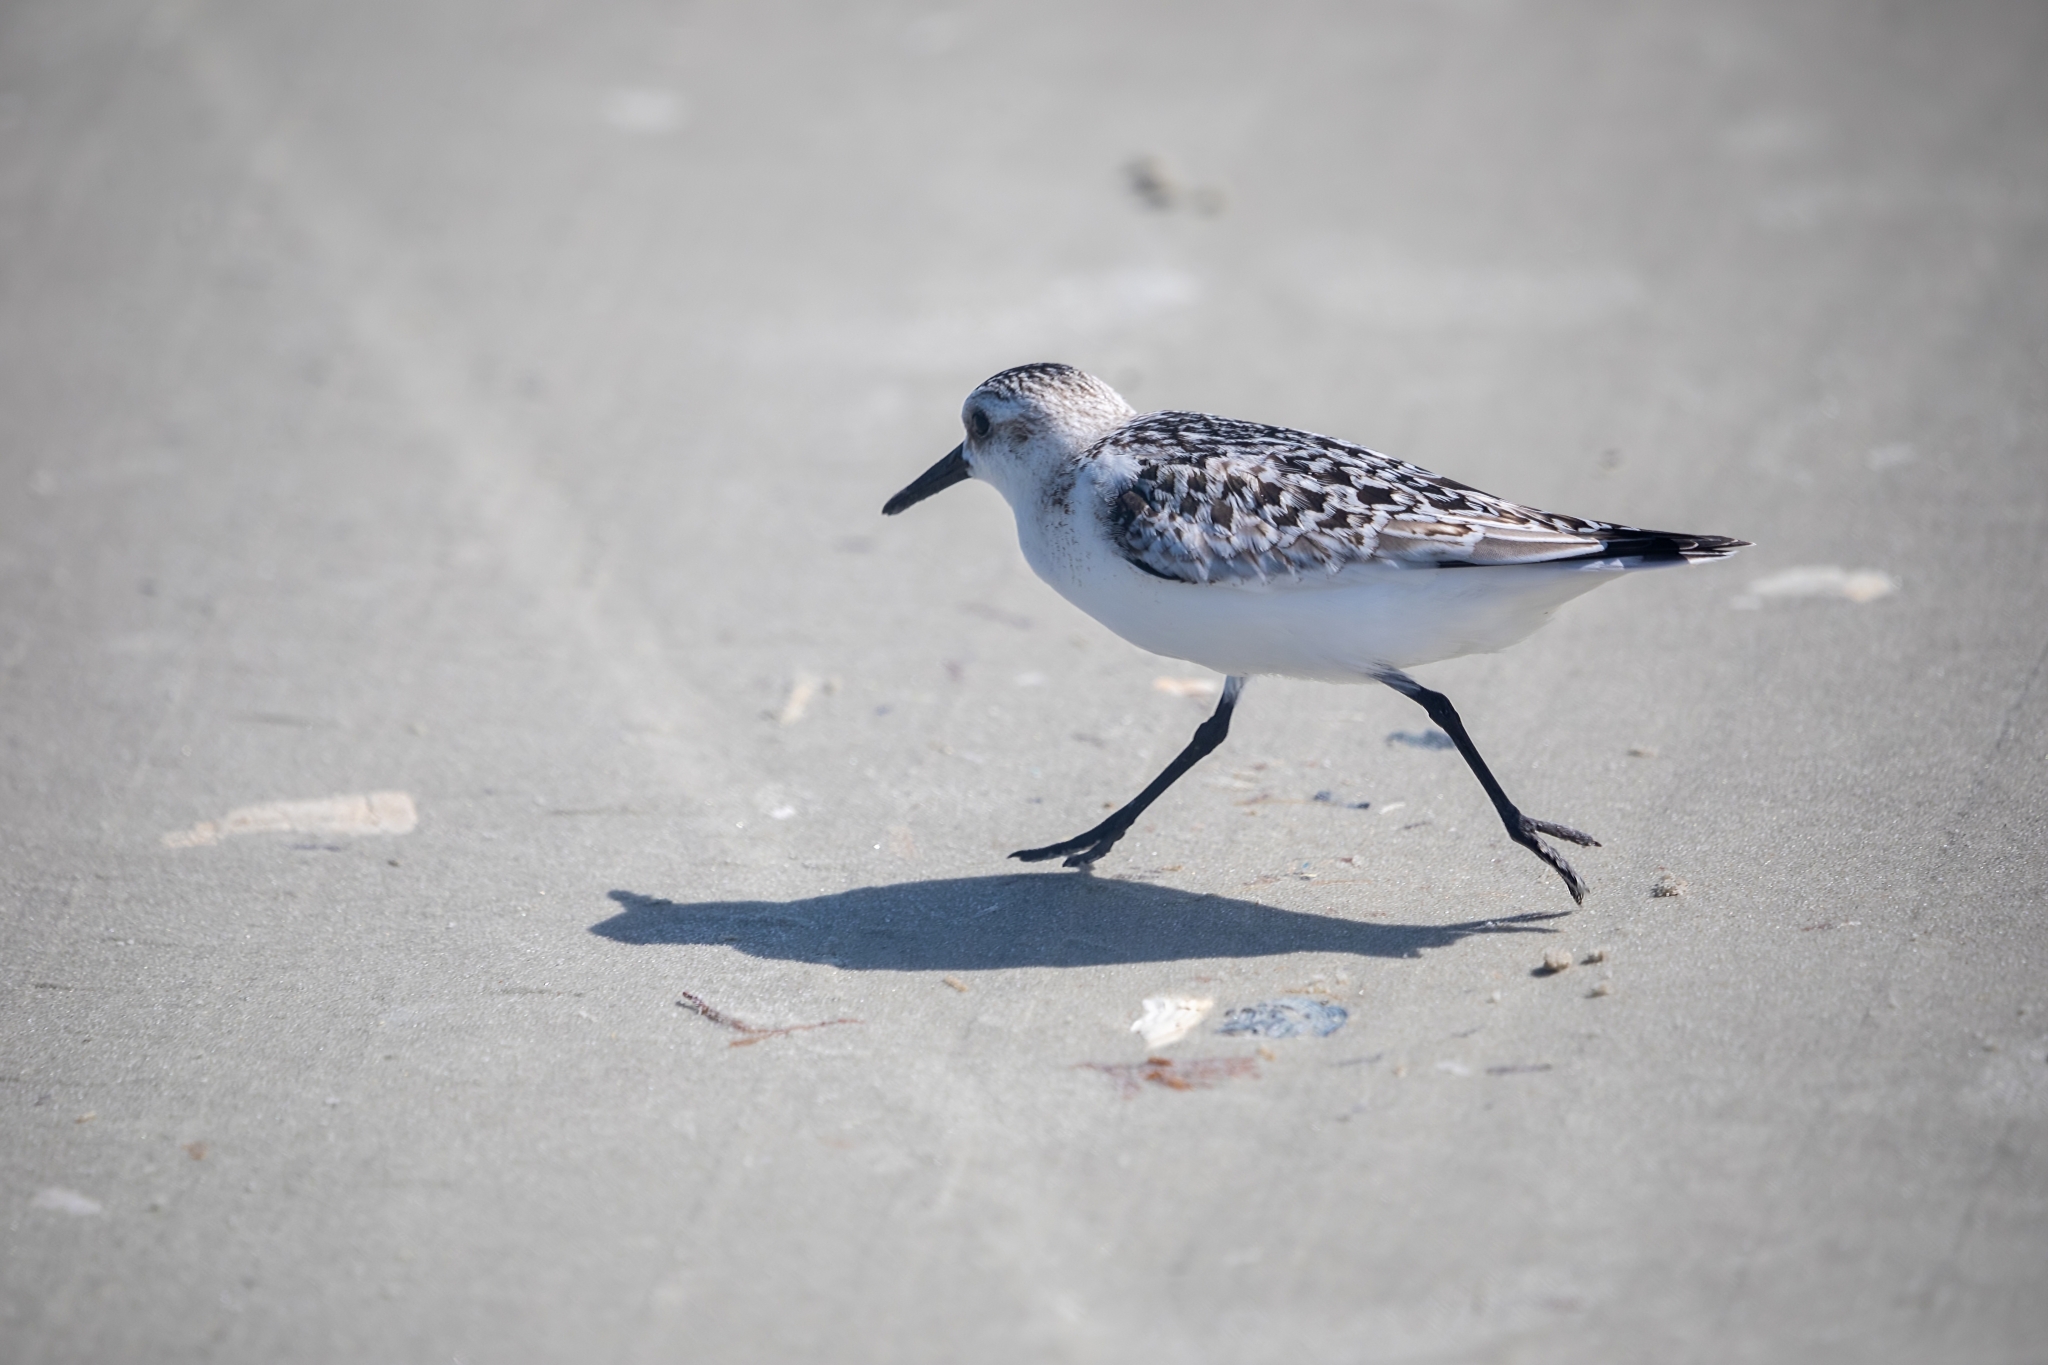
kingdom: Animalia
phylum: Chordata
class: Aves
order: Charadriiformes
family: Scolopacidae
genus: Calidris
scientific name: Calidris alba
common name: Sanderling
